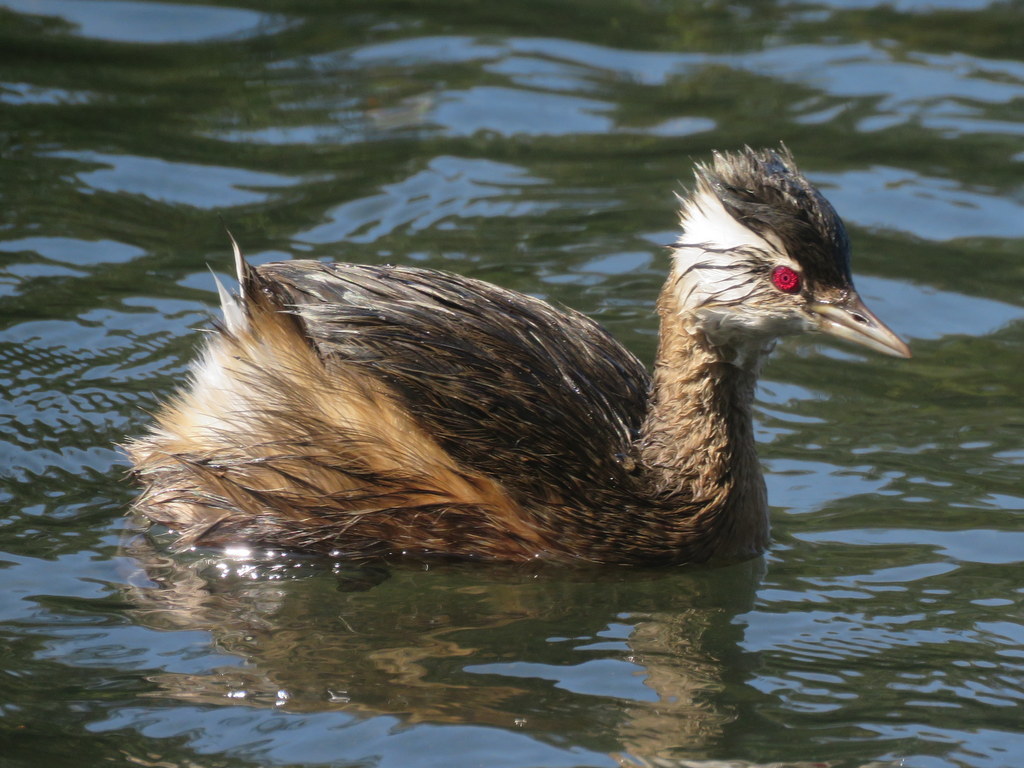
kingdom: Animalia
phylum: Chordata
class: Aves
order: Podicipediformes
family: Podicipedidae
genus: Rollandia
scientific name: Rollandia rolland
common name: White-tufted grebe
